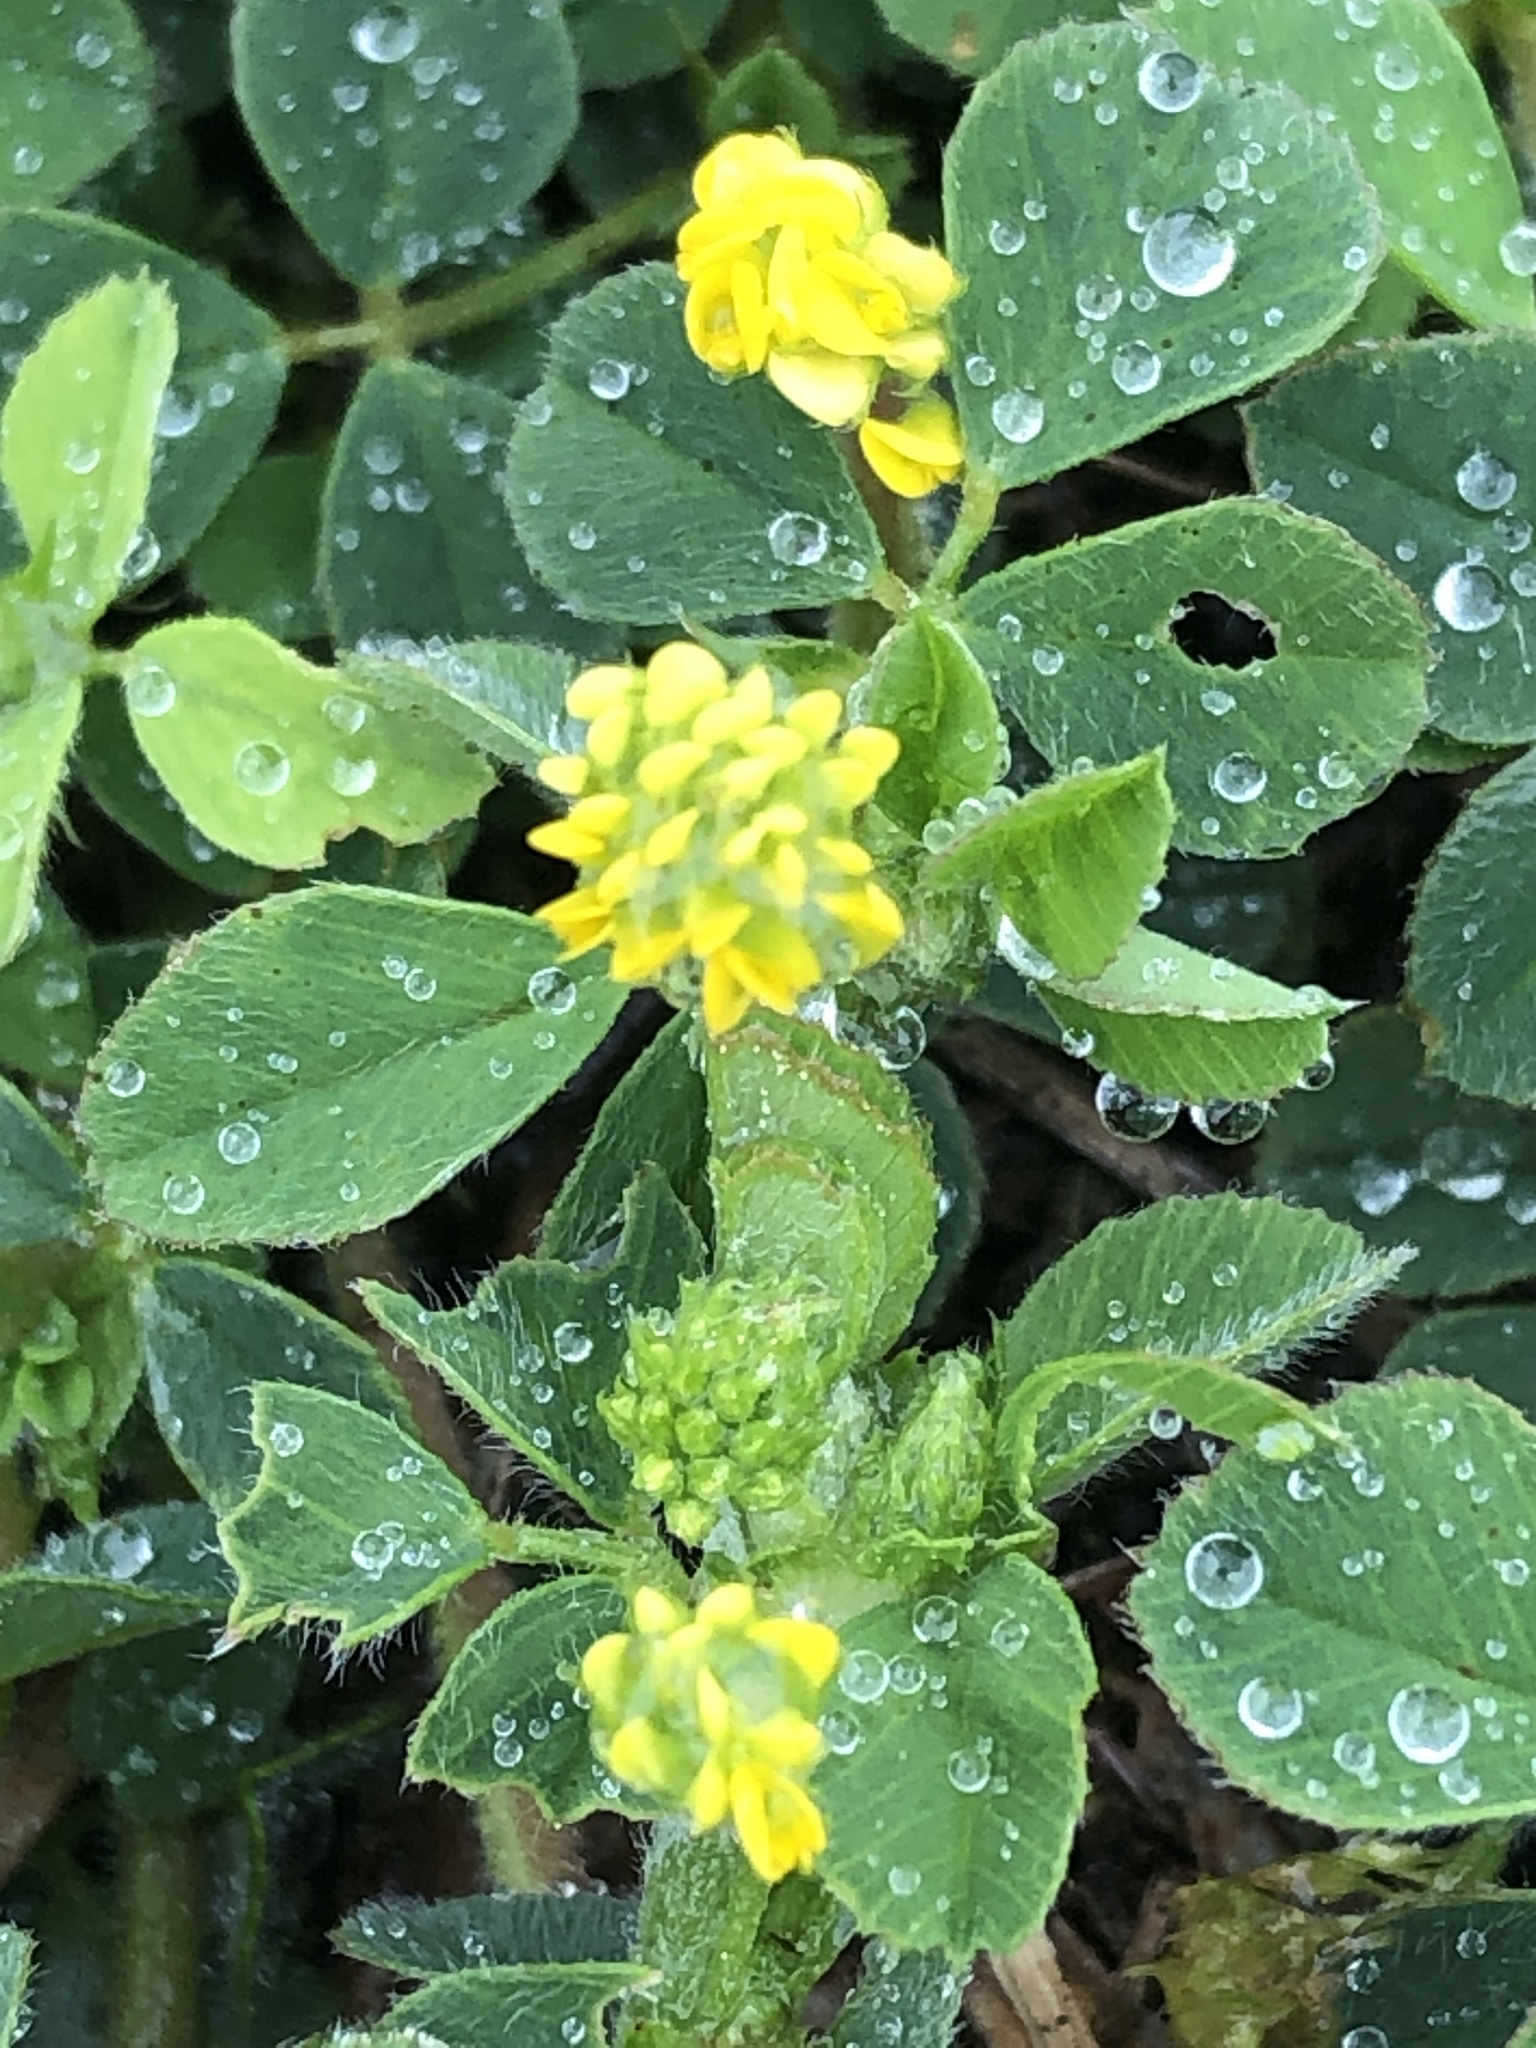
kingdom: Plantae
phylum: Tracheophyta
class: Magnoliopsida
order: Fabales
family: Fabaceae
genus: Medicago
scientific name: Medicago lupulina
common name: Black medick
